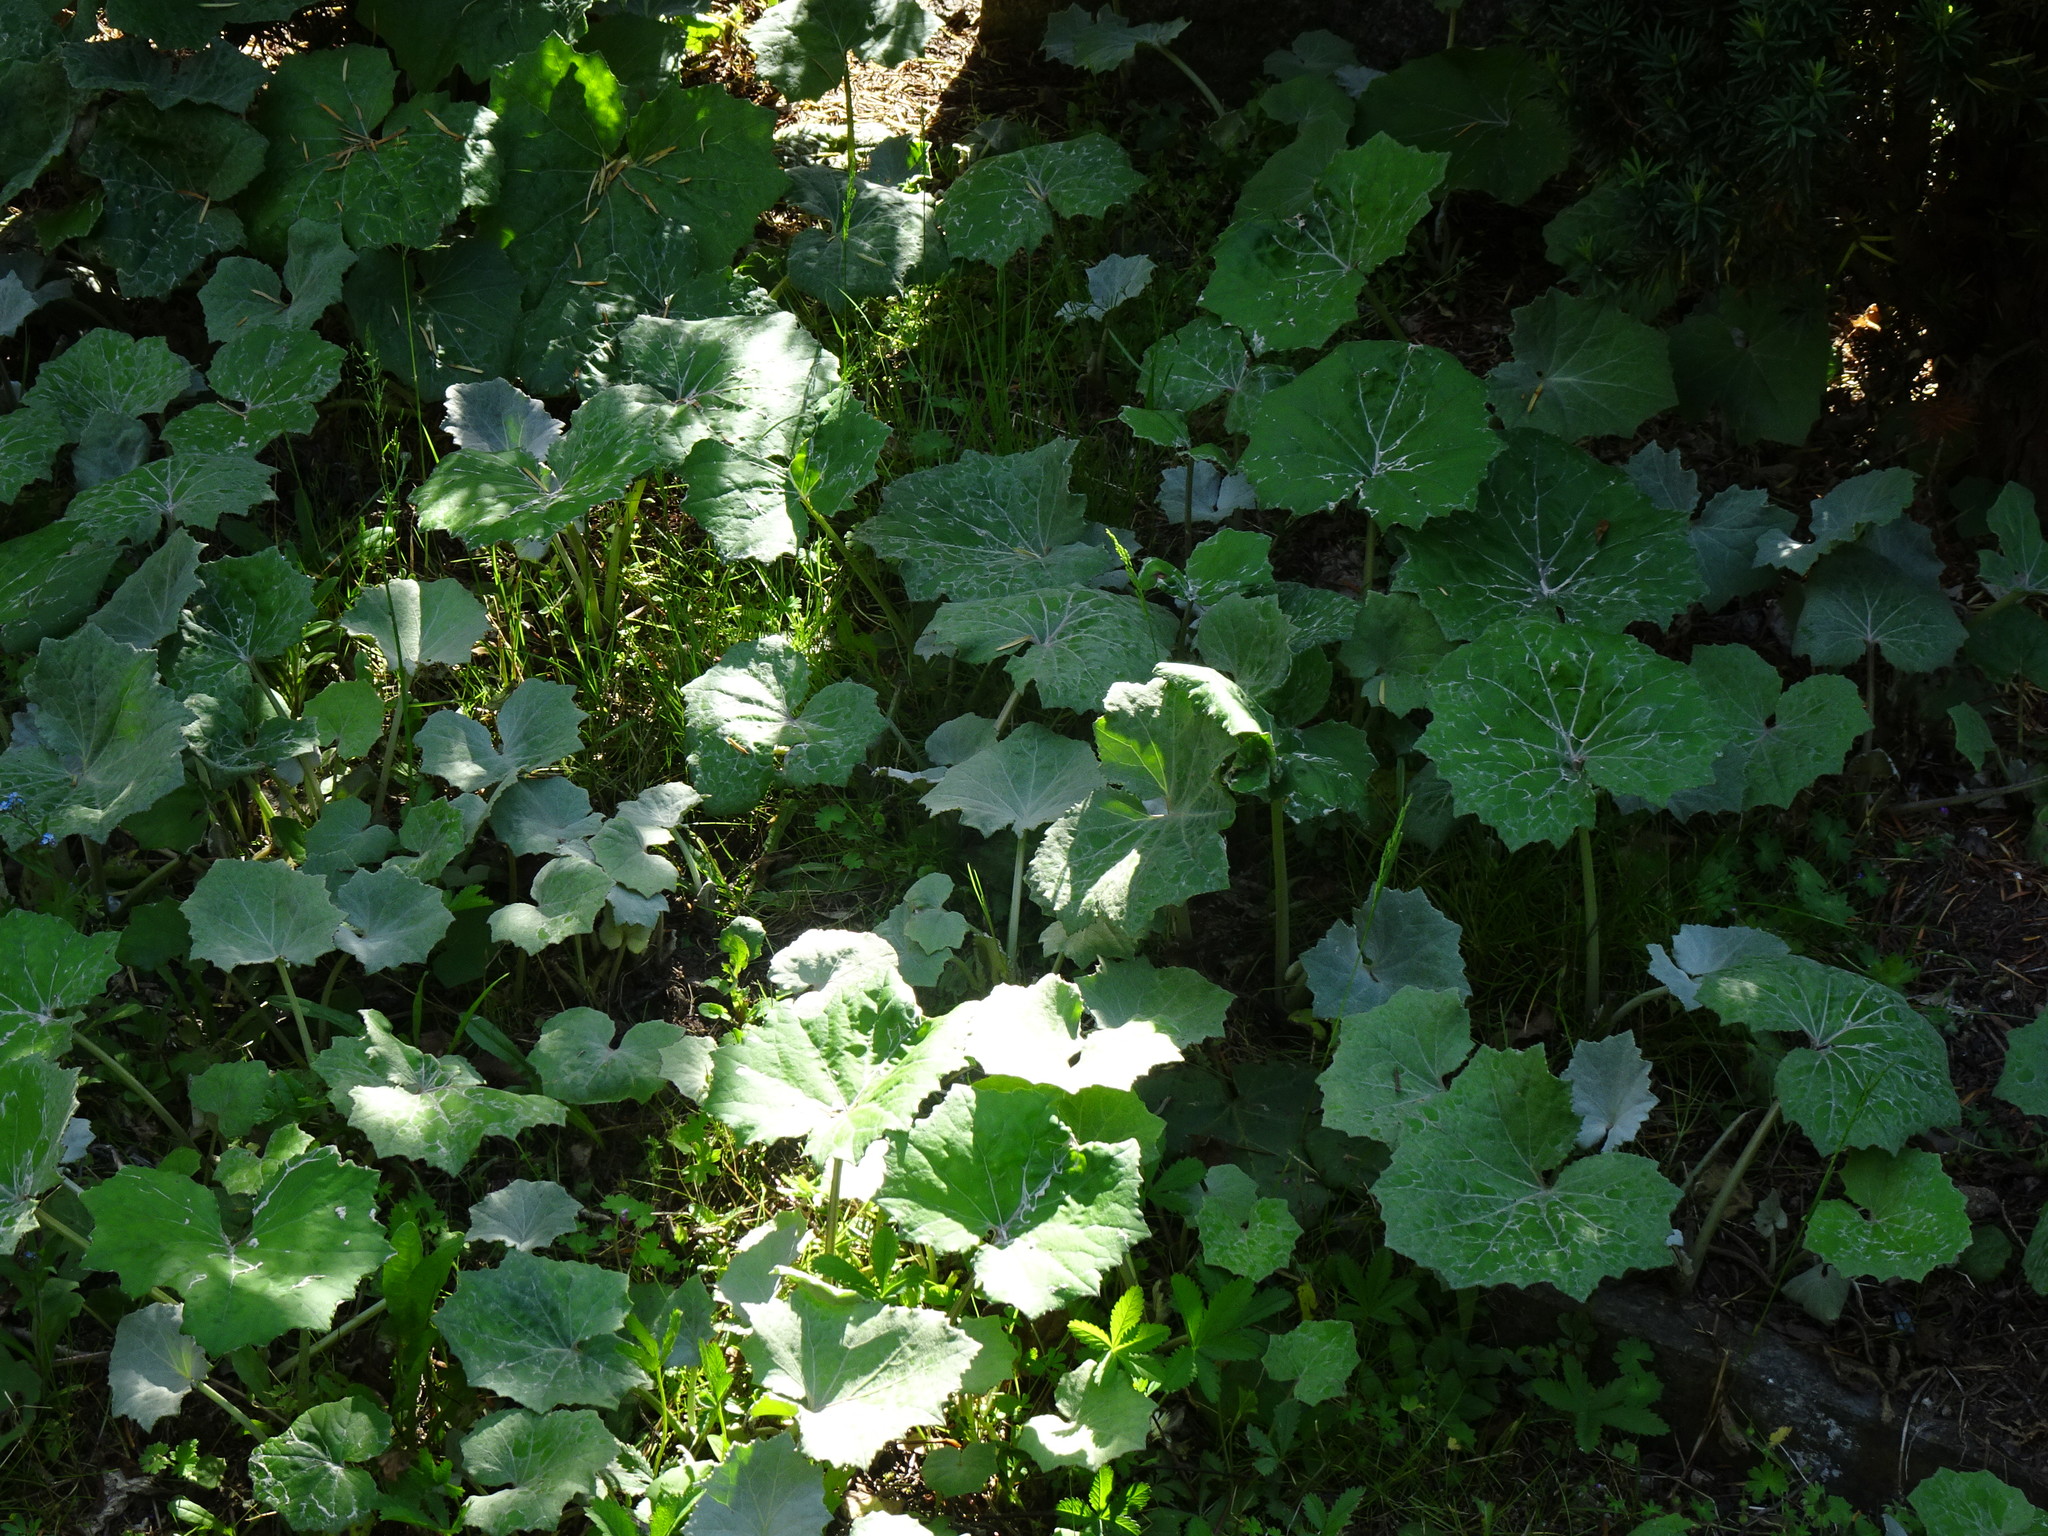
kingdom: Plantae
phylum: Tracheophyta
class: Magnoliopsida
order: Asterales
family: Asteraceae
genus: Tussilago
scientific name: Tussilago farfara
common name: Coltsfoot
